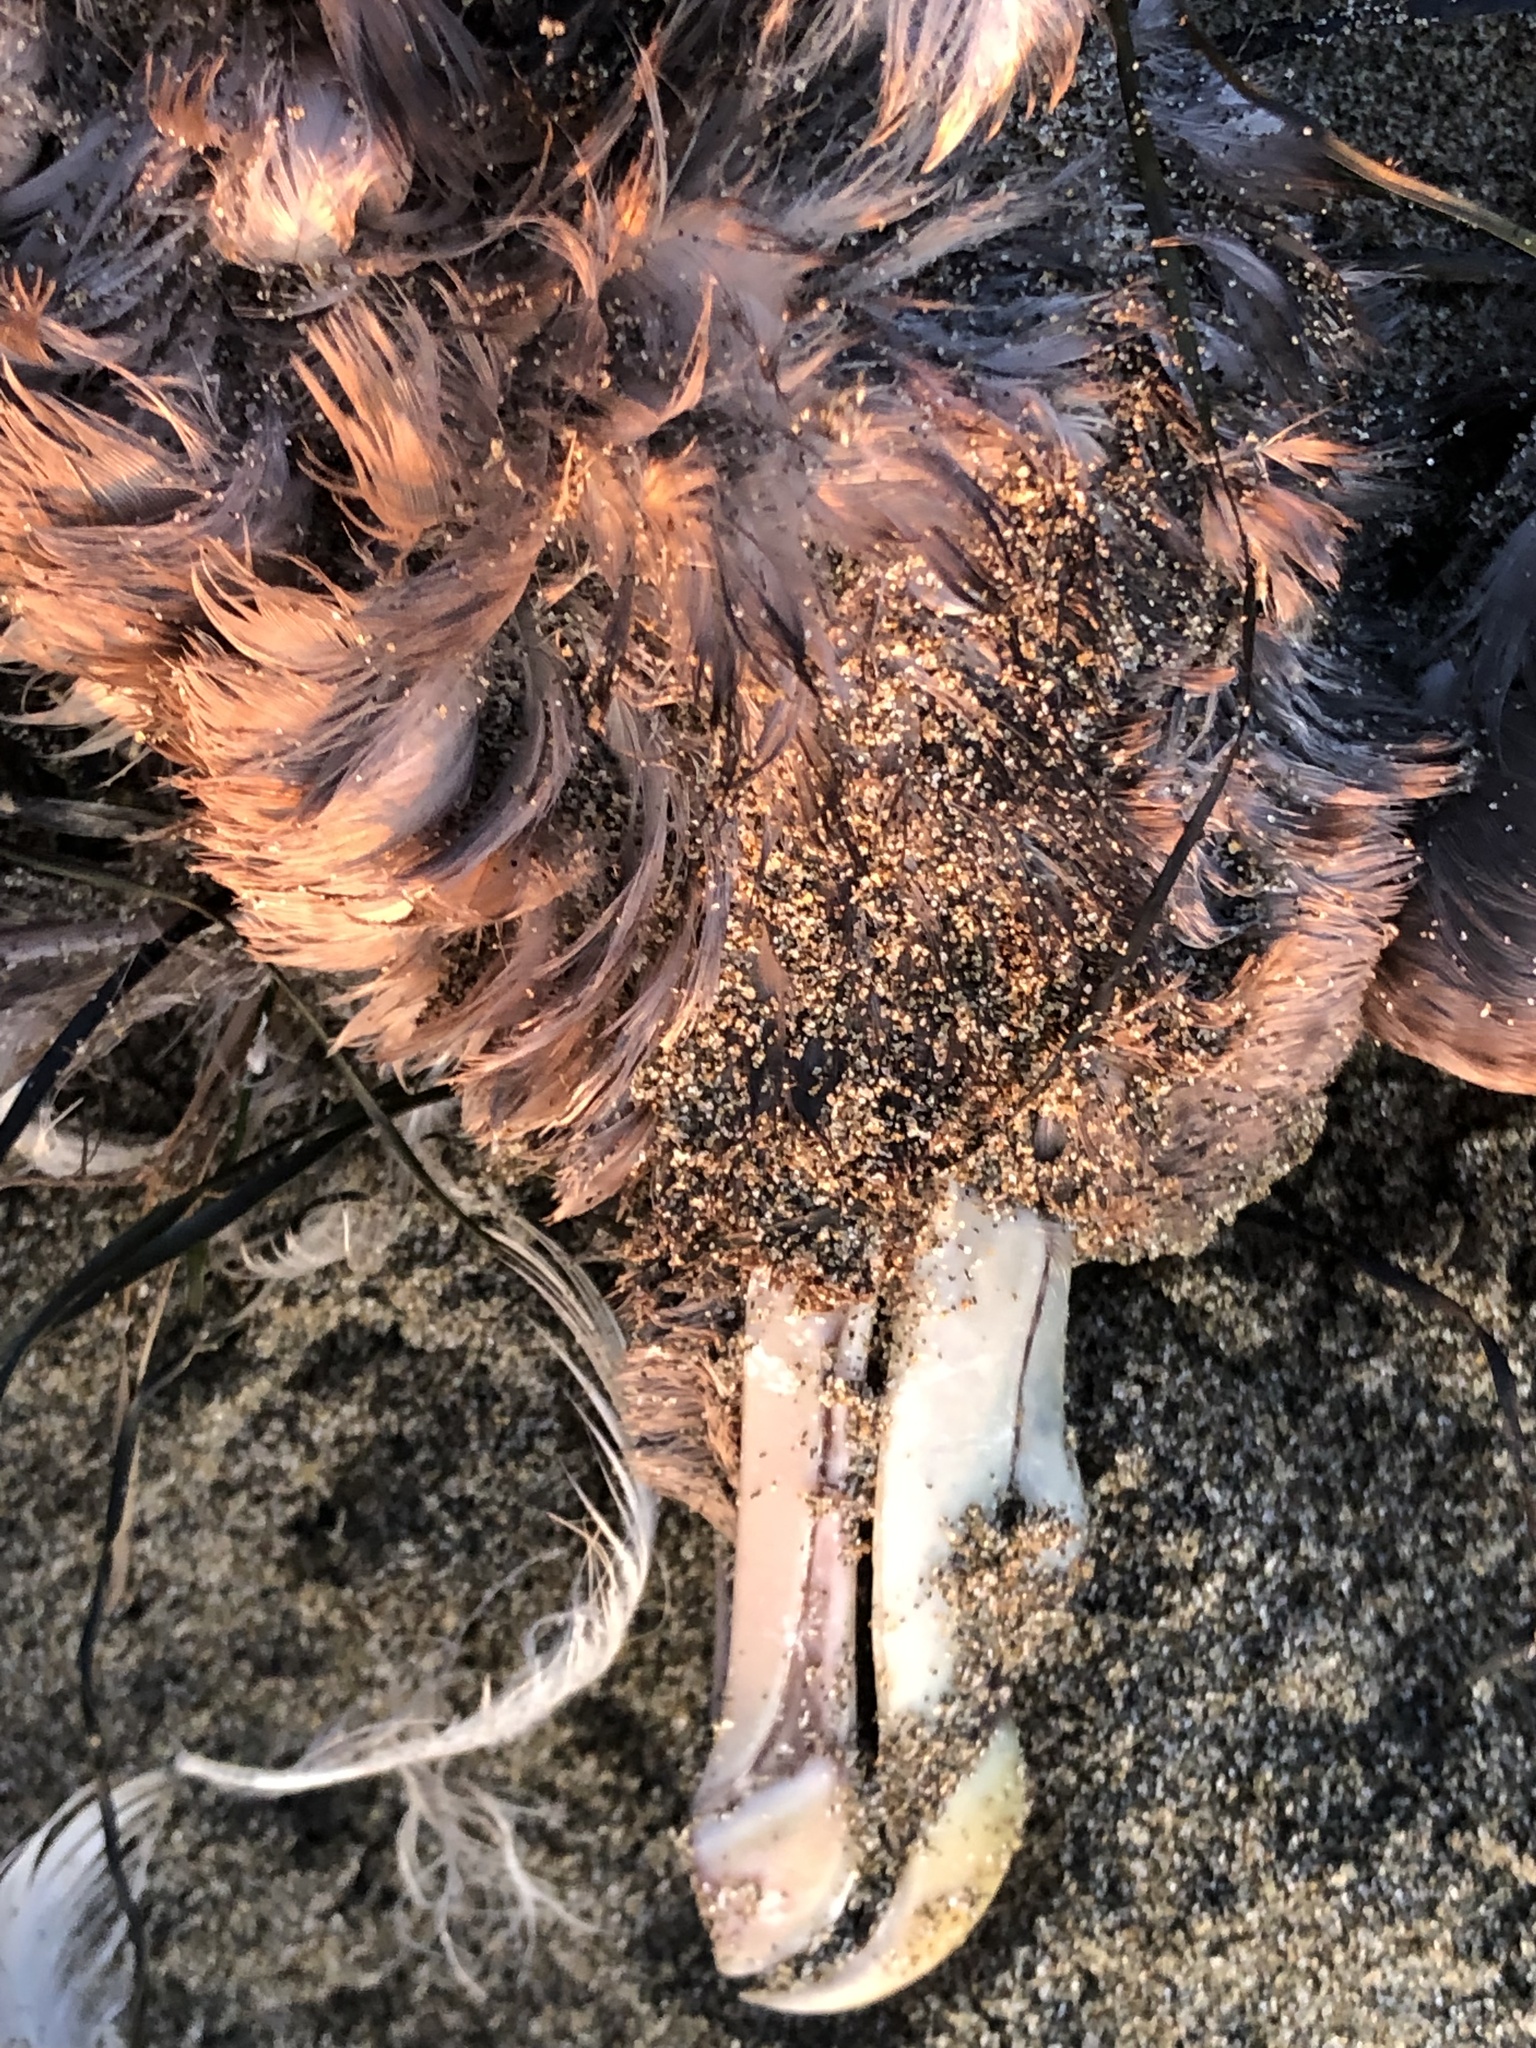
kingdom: Animalia
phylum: Chordata
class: Aves
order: Procellariiformes
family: Procellariidae
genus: Fulmarus
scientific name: Fulmarus glacialis
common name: Northern fulmar
